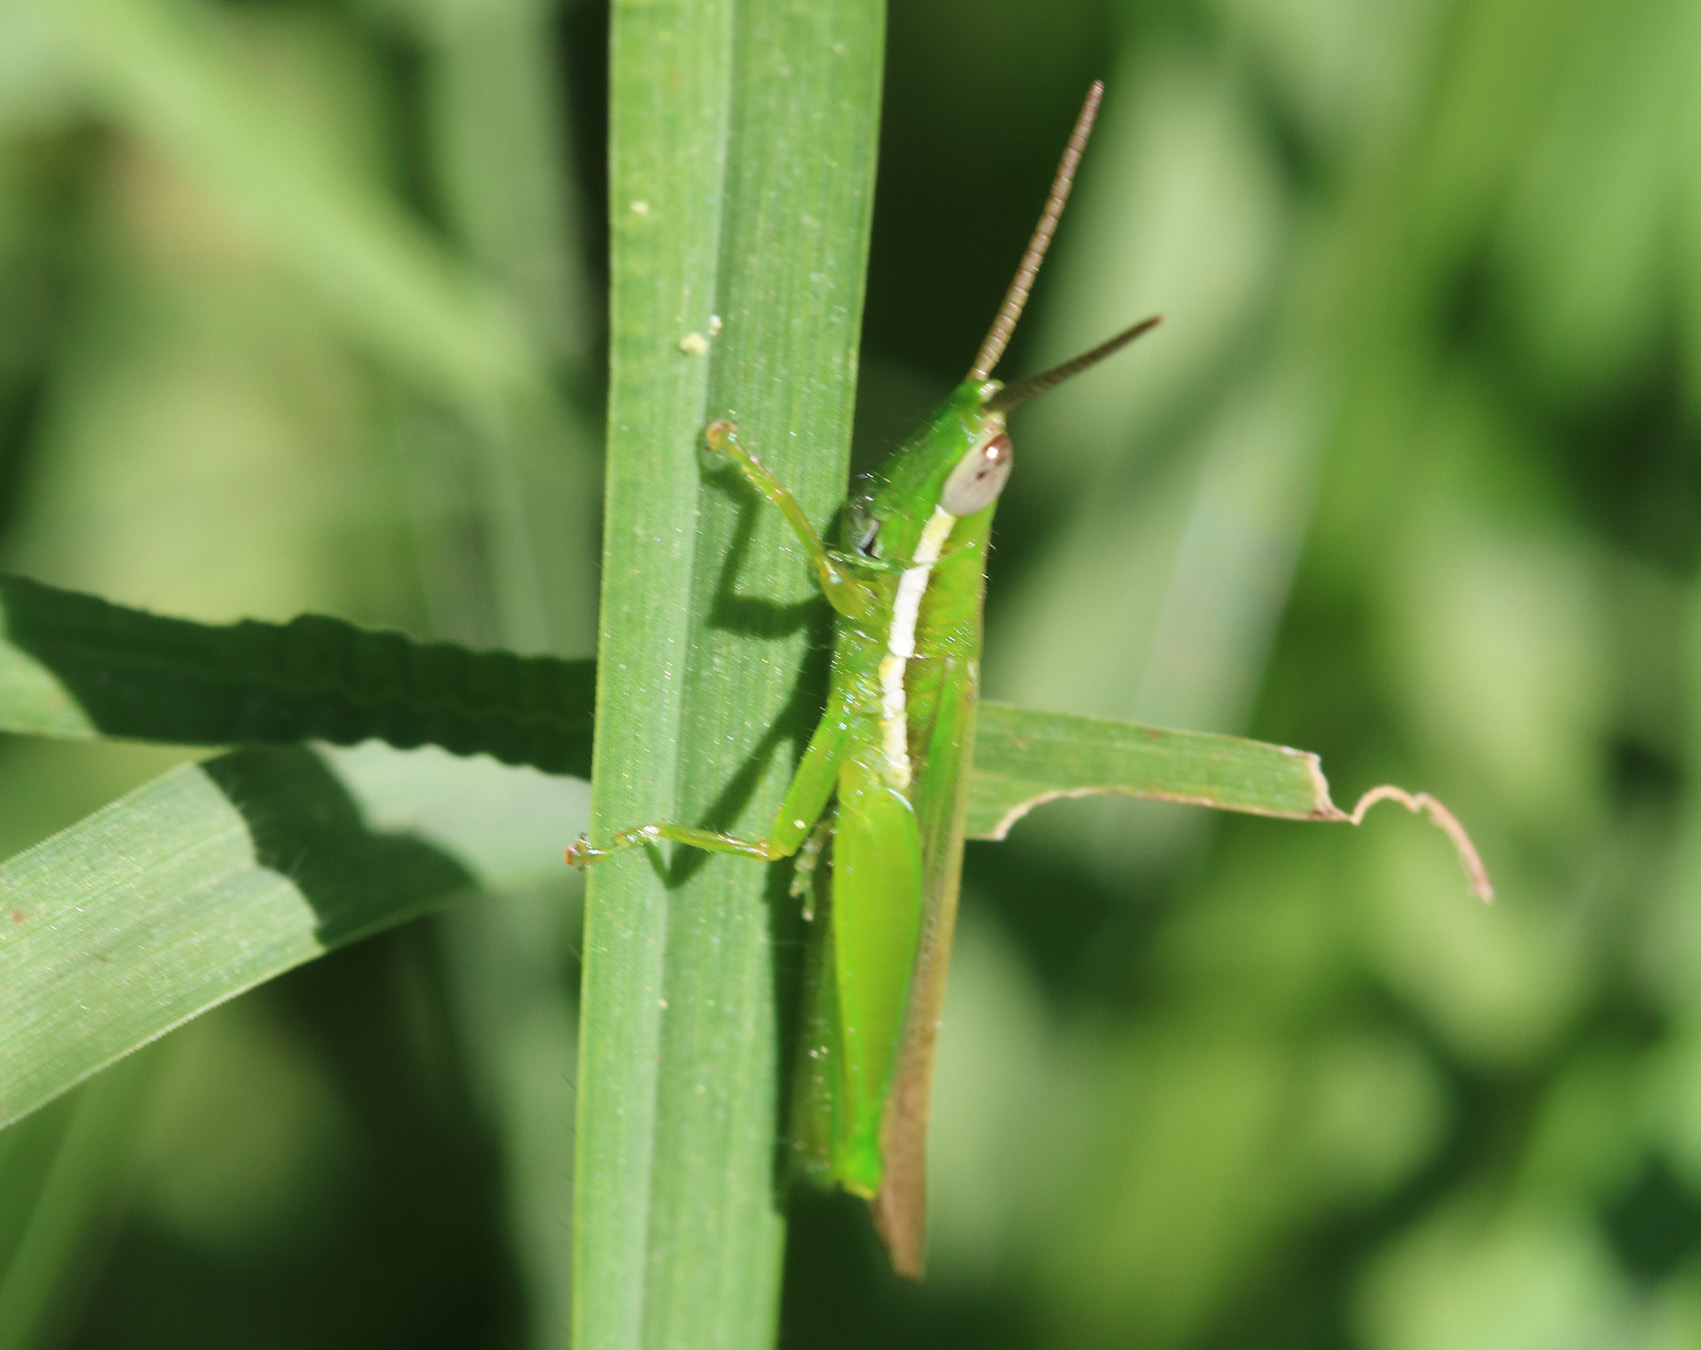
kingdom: Animalia
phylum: Arthropoda
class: Insecta
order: Orthoptera
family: Acrididae
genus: Tucayaca
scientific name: Tucayaca gracilis
